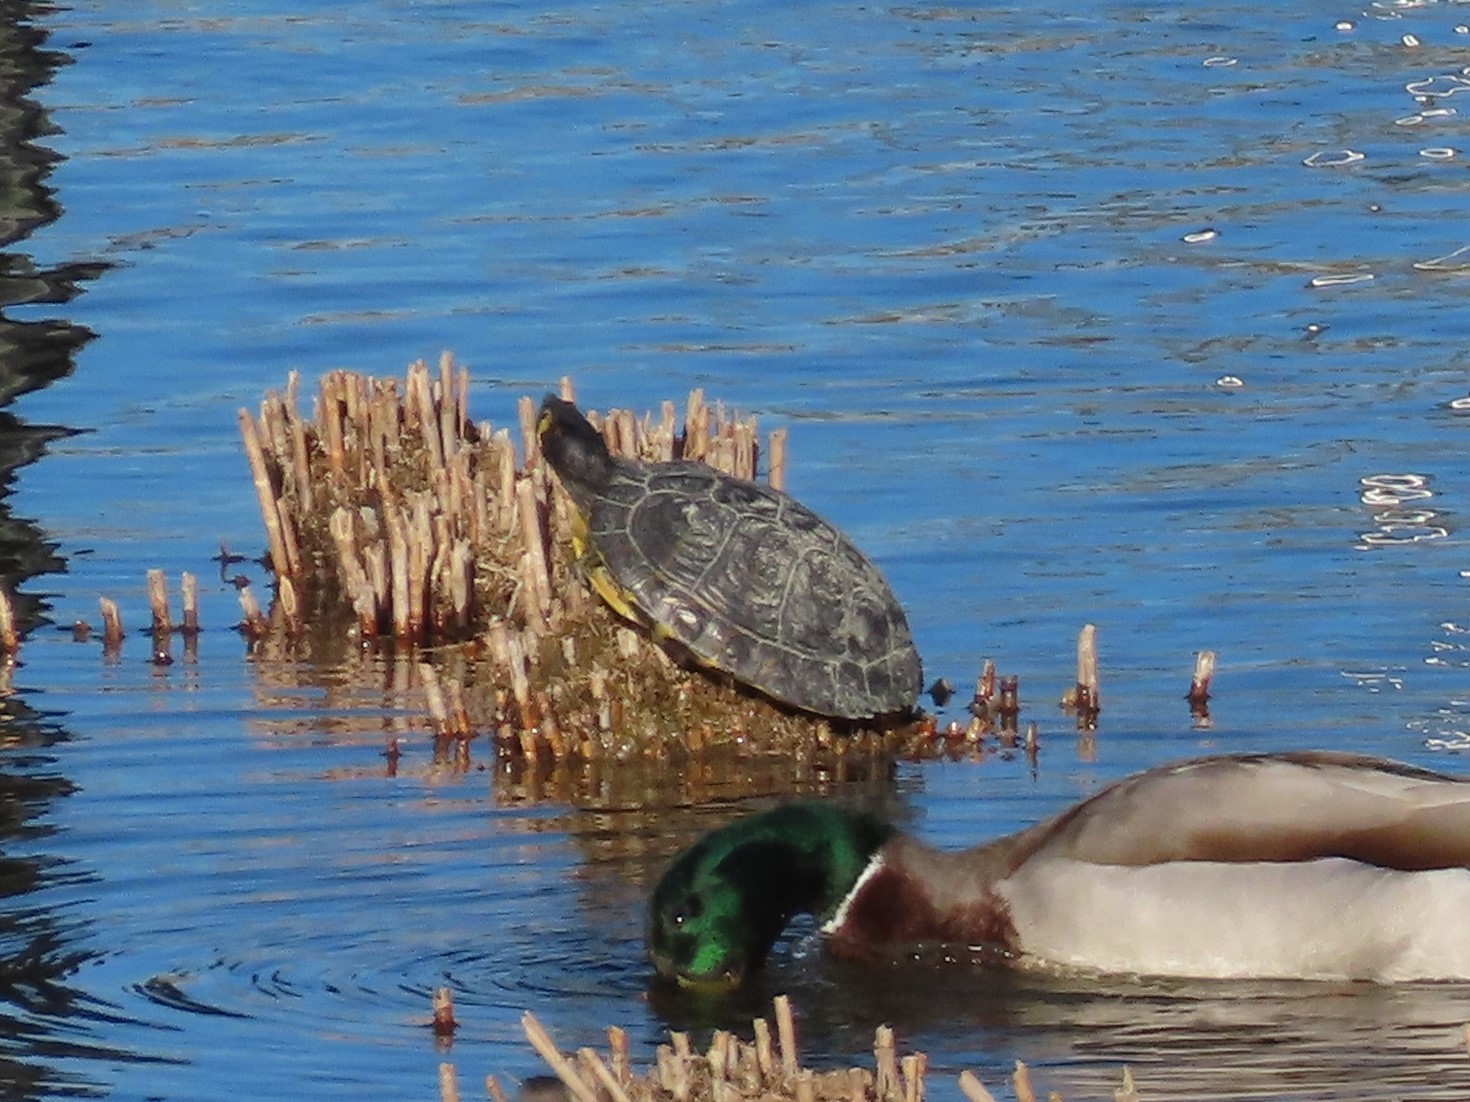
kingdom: Animalia
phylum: Chordata
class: Testudines
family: Emydidae
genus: Trachemys
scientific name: Trachemys scripta
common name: Slider
